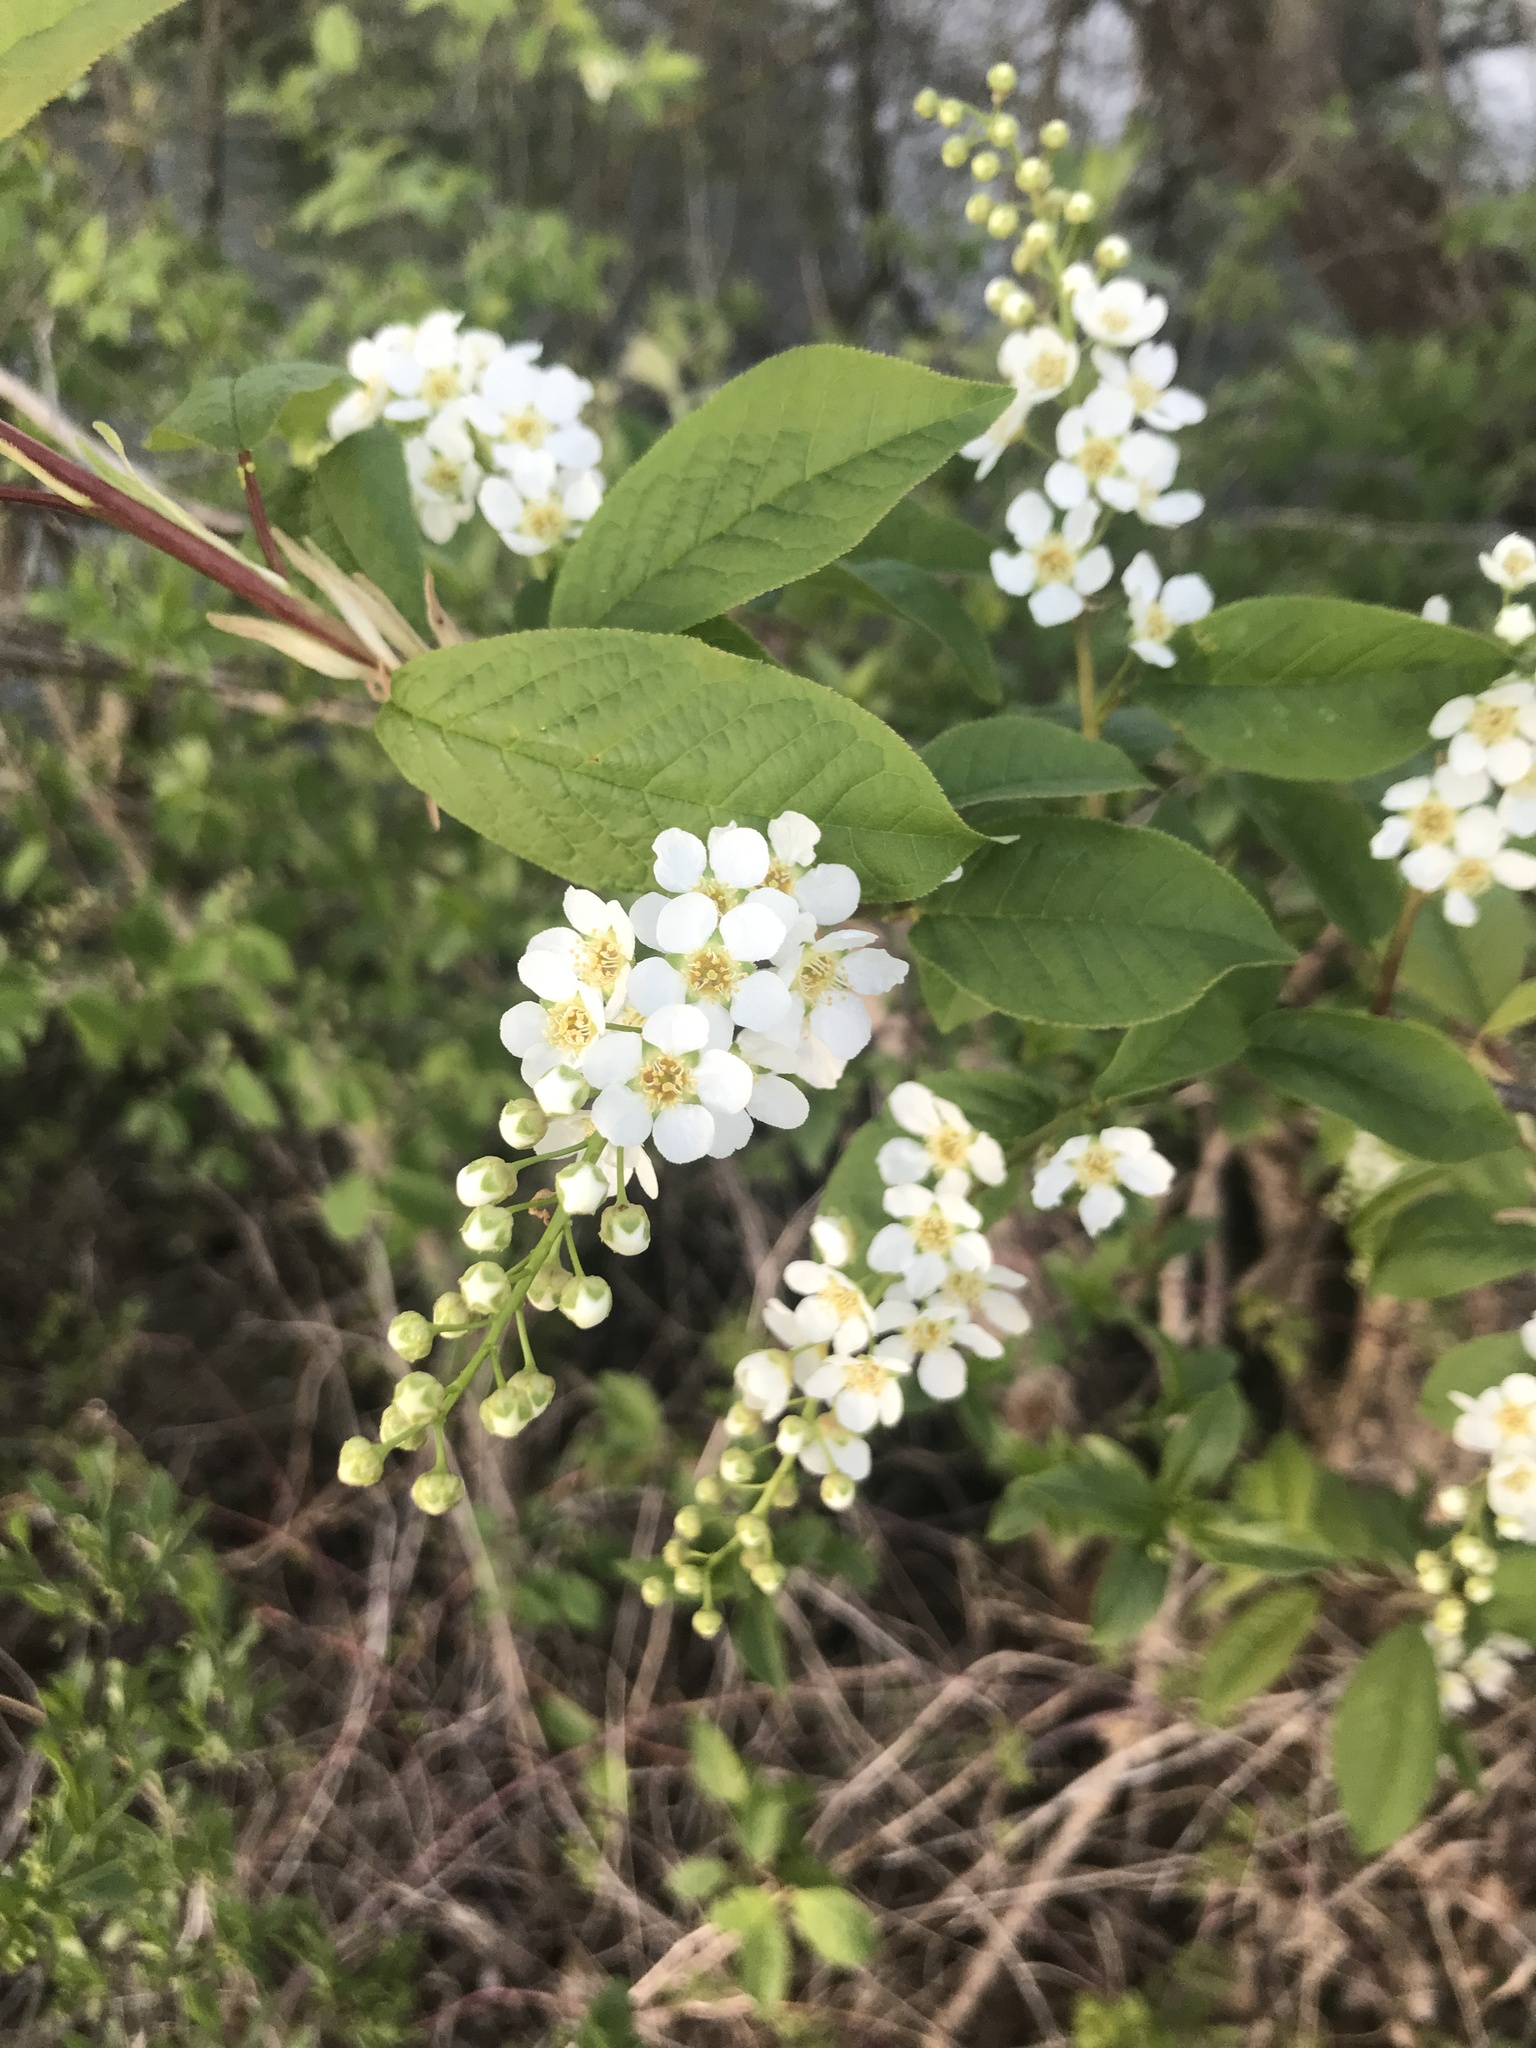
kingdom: Plantae
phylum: Tracheophyta
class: Magnoliopsida
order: Rosales
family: Rosaceae
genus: Prunus
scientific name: Prunus padus
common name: Bird cherry
